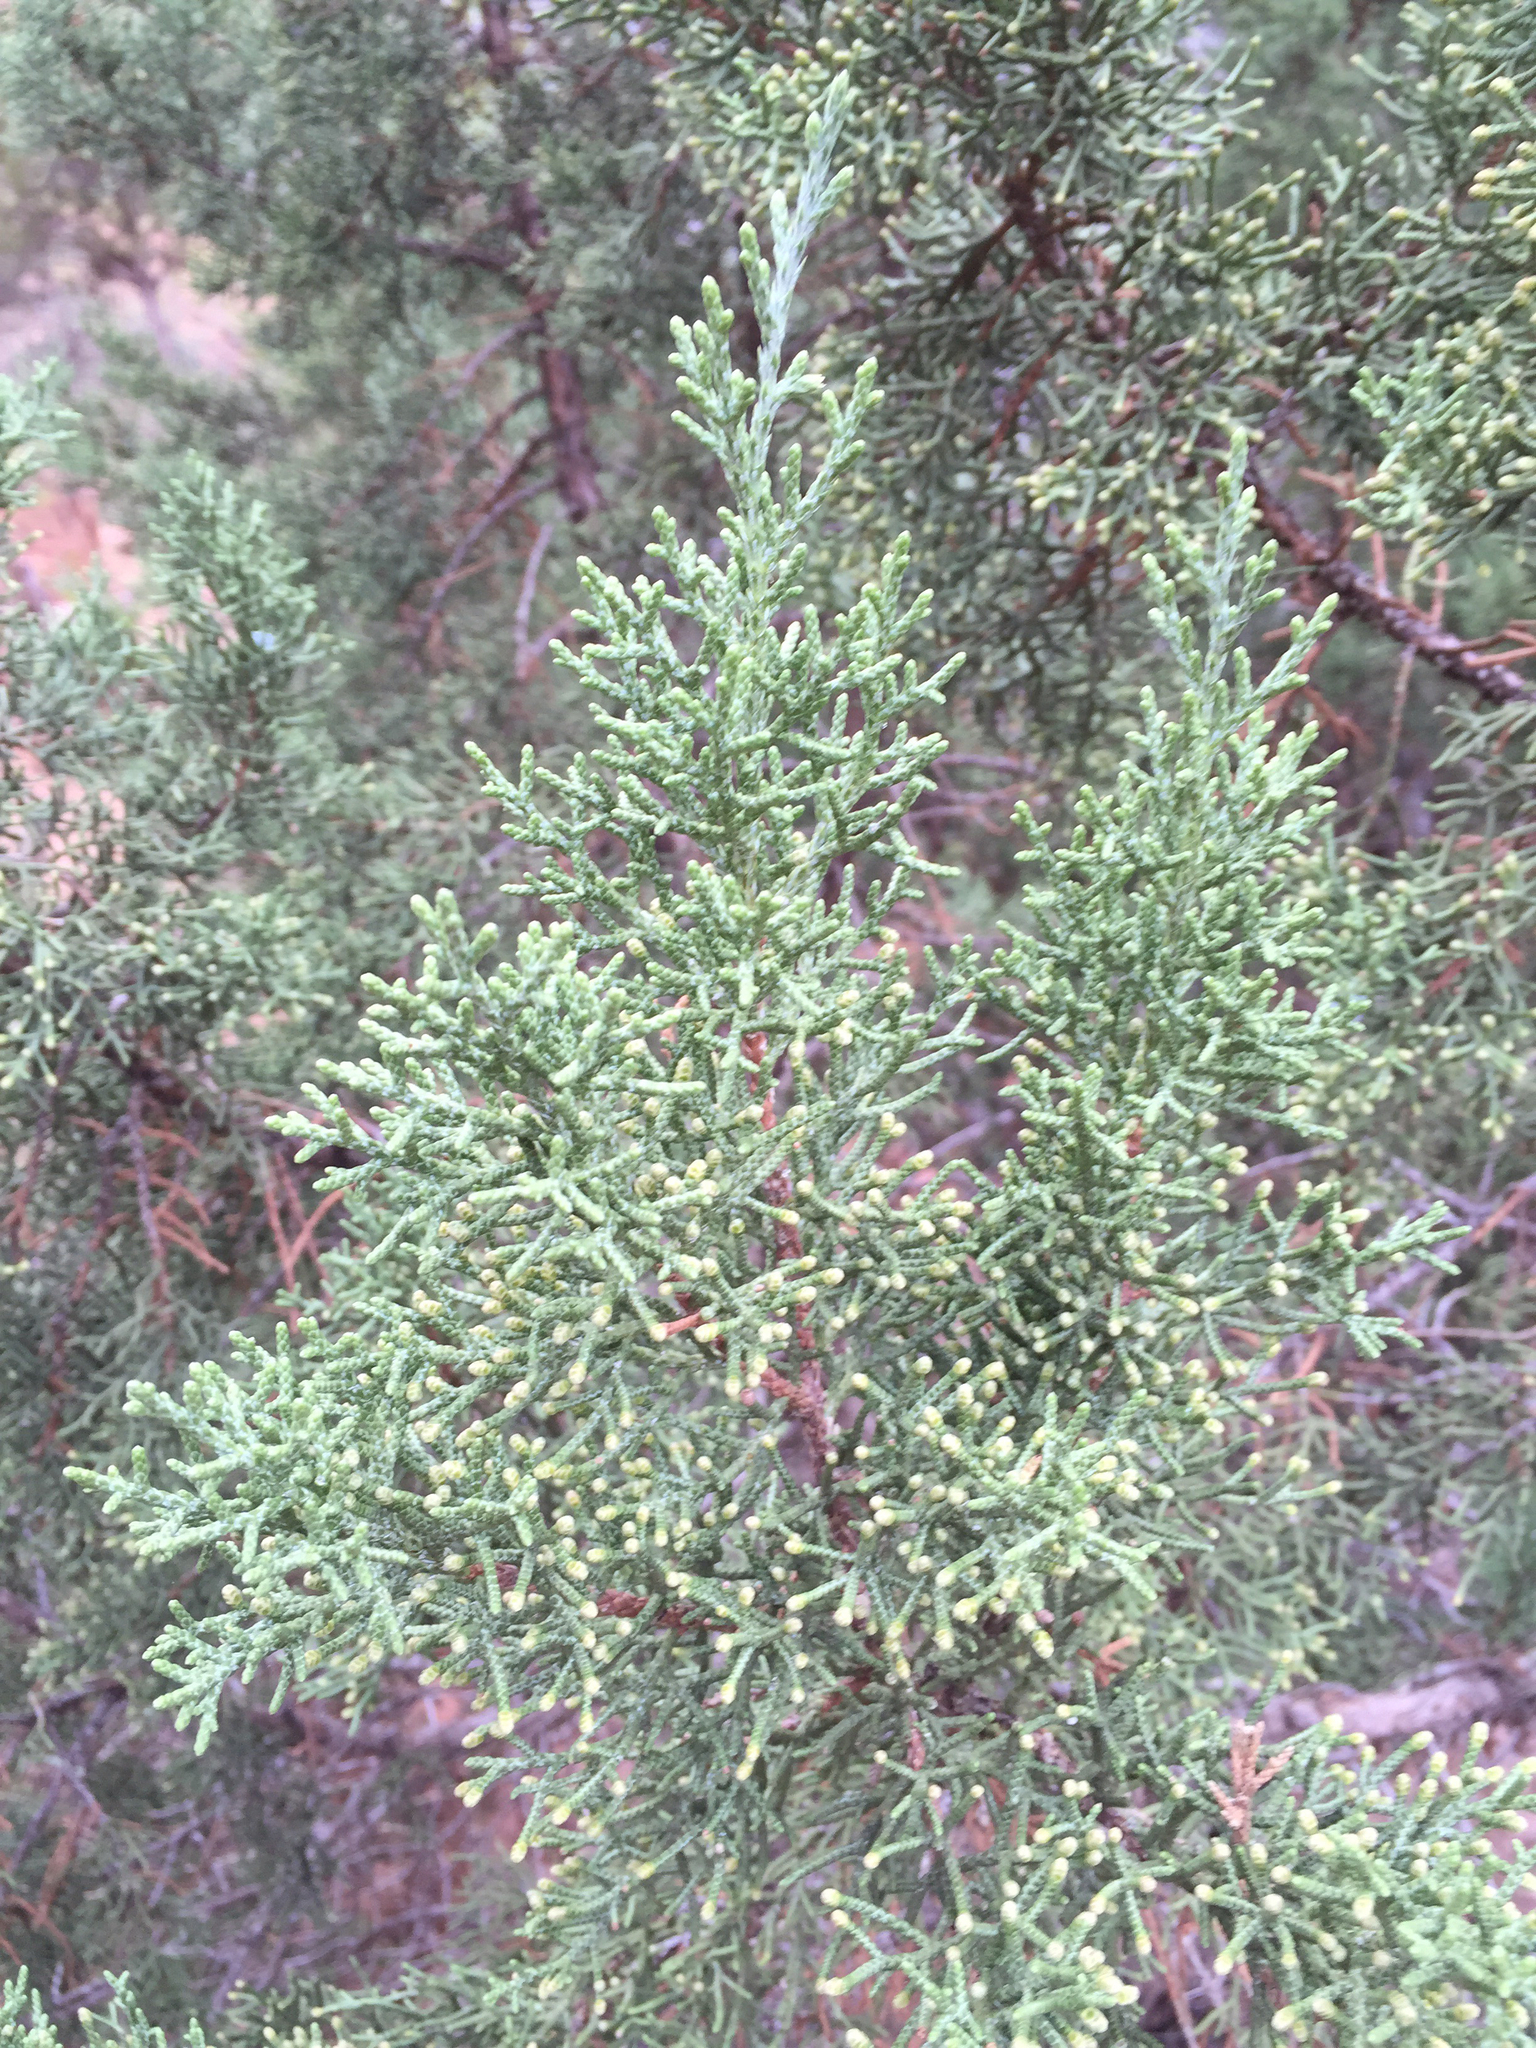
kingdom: Plantae
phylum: Tracheophyta
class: Pinopsida
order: Pinales
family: Cupressaceae
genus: Juniperus
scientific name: Juniperus osteosperma
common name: Utah juniper
